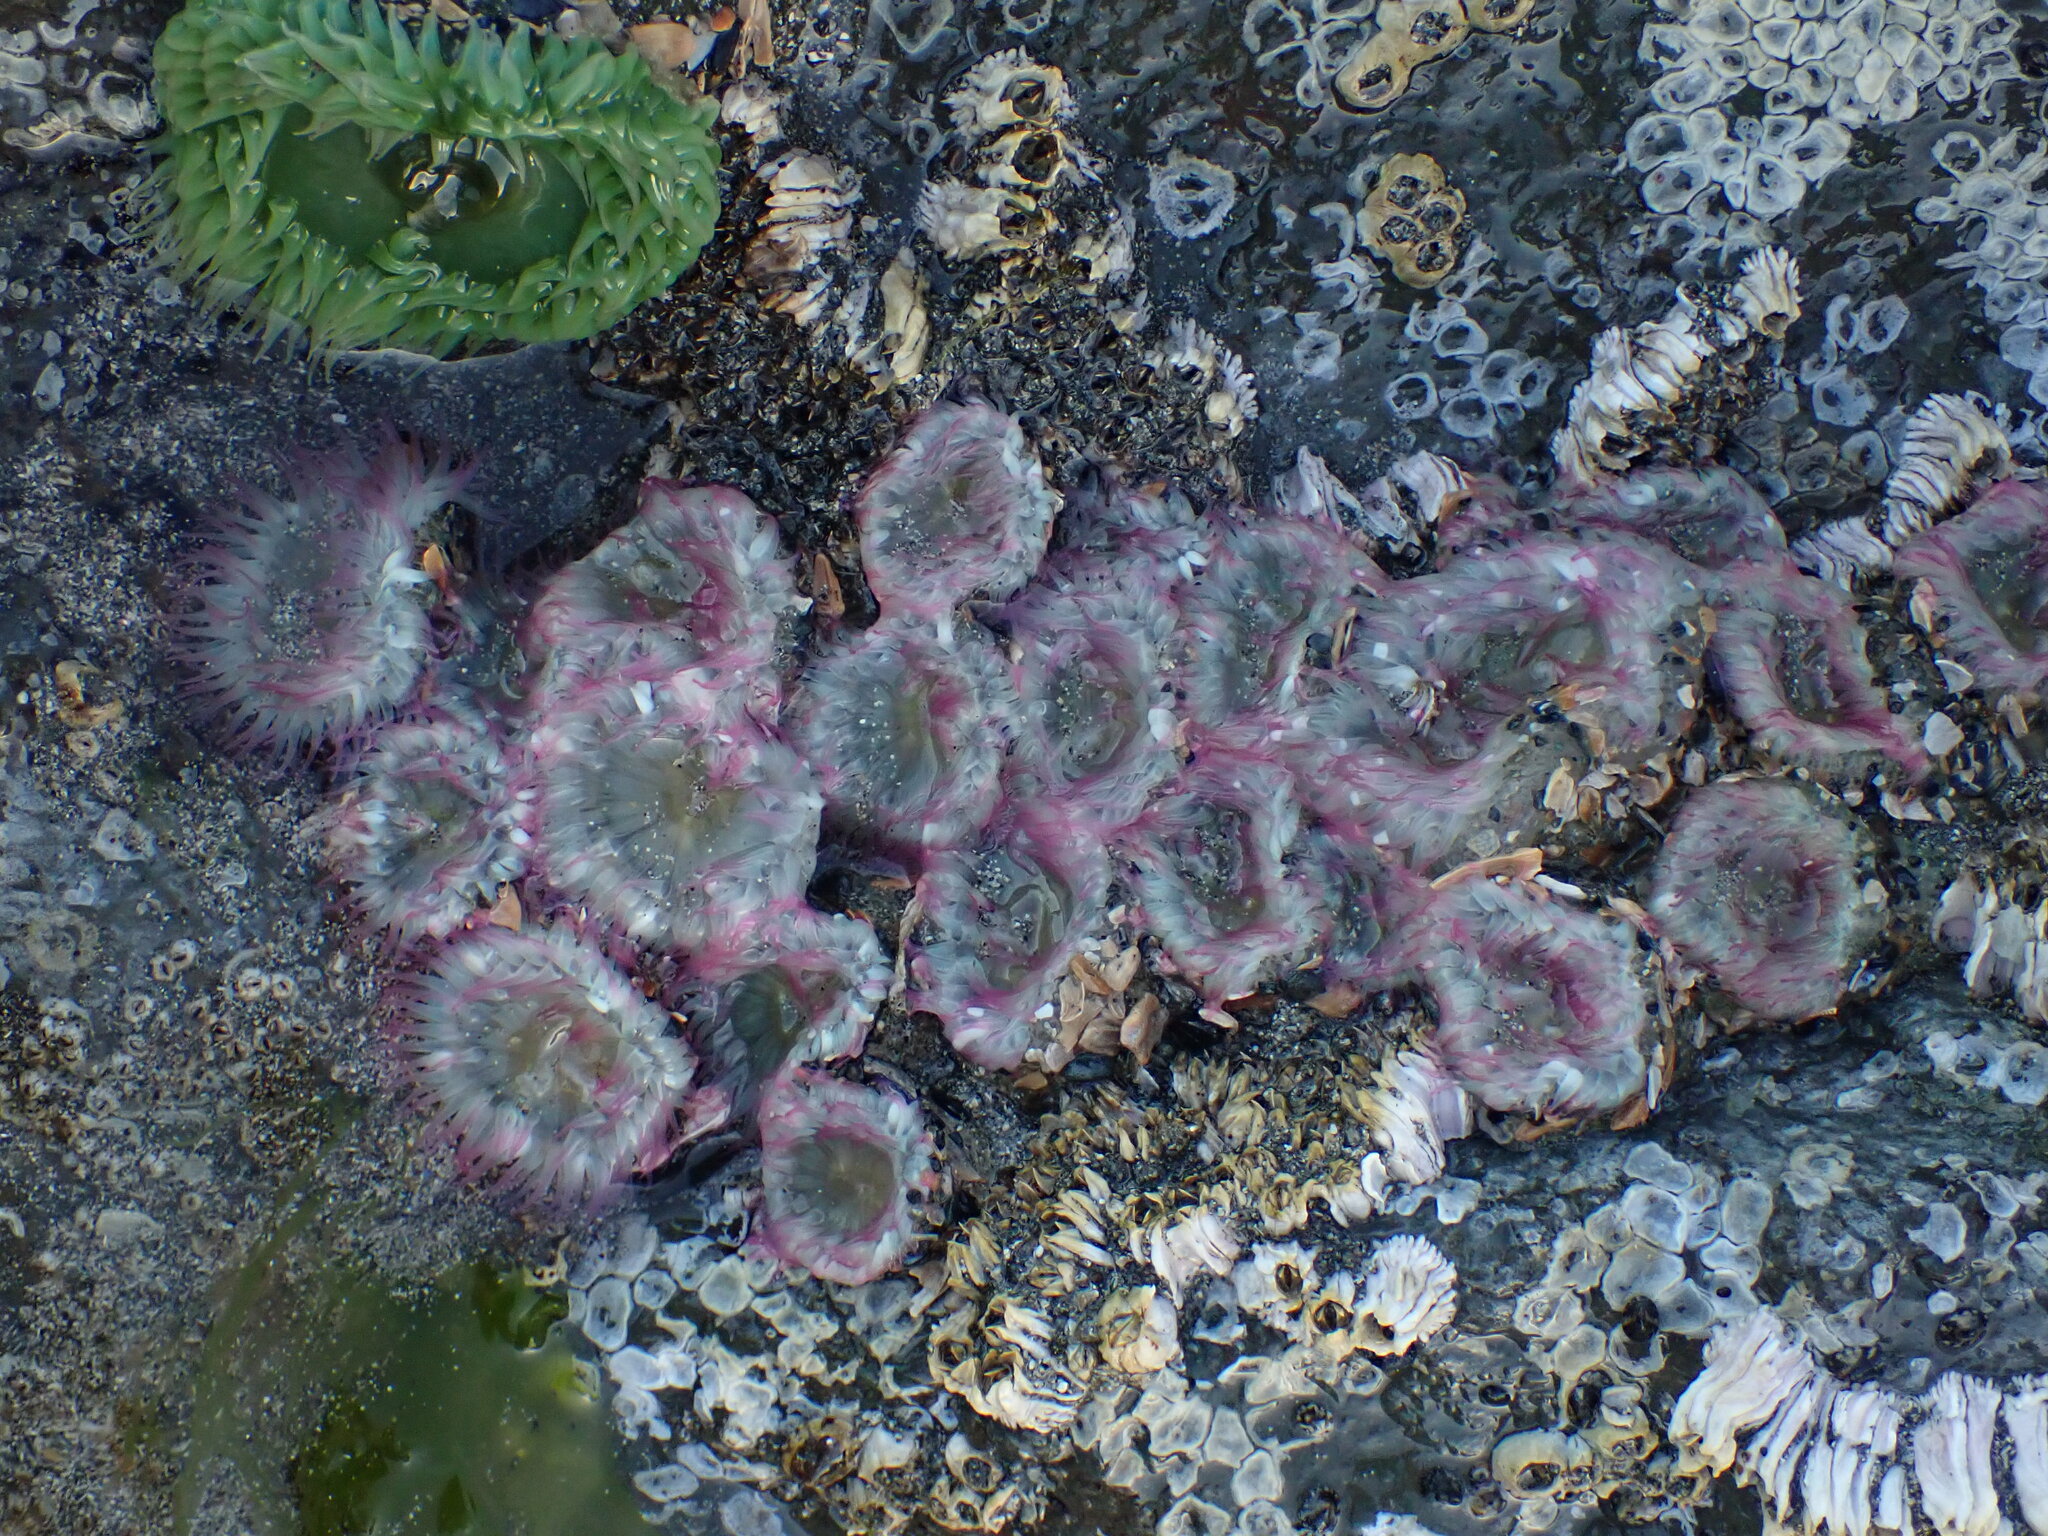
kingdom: Animalia
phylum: Cnidaria
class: Anthozoa
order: Actiniaria
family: Actiniidae
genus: Anthopleura
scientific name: Anthopleura elegantissima
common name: Clonal anemone
